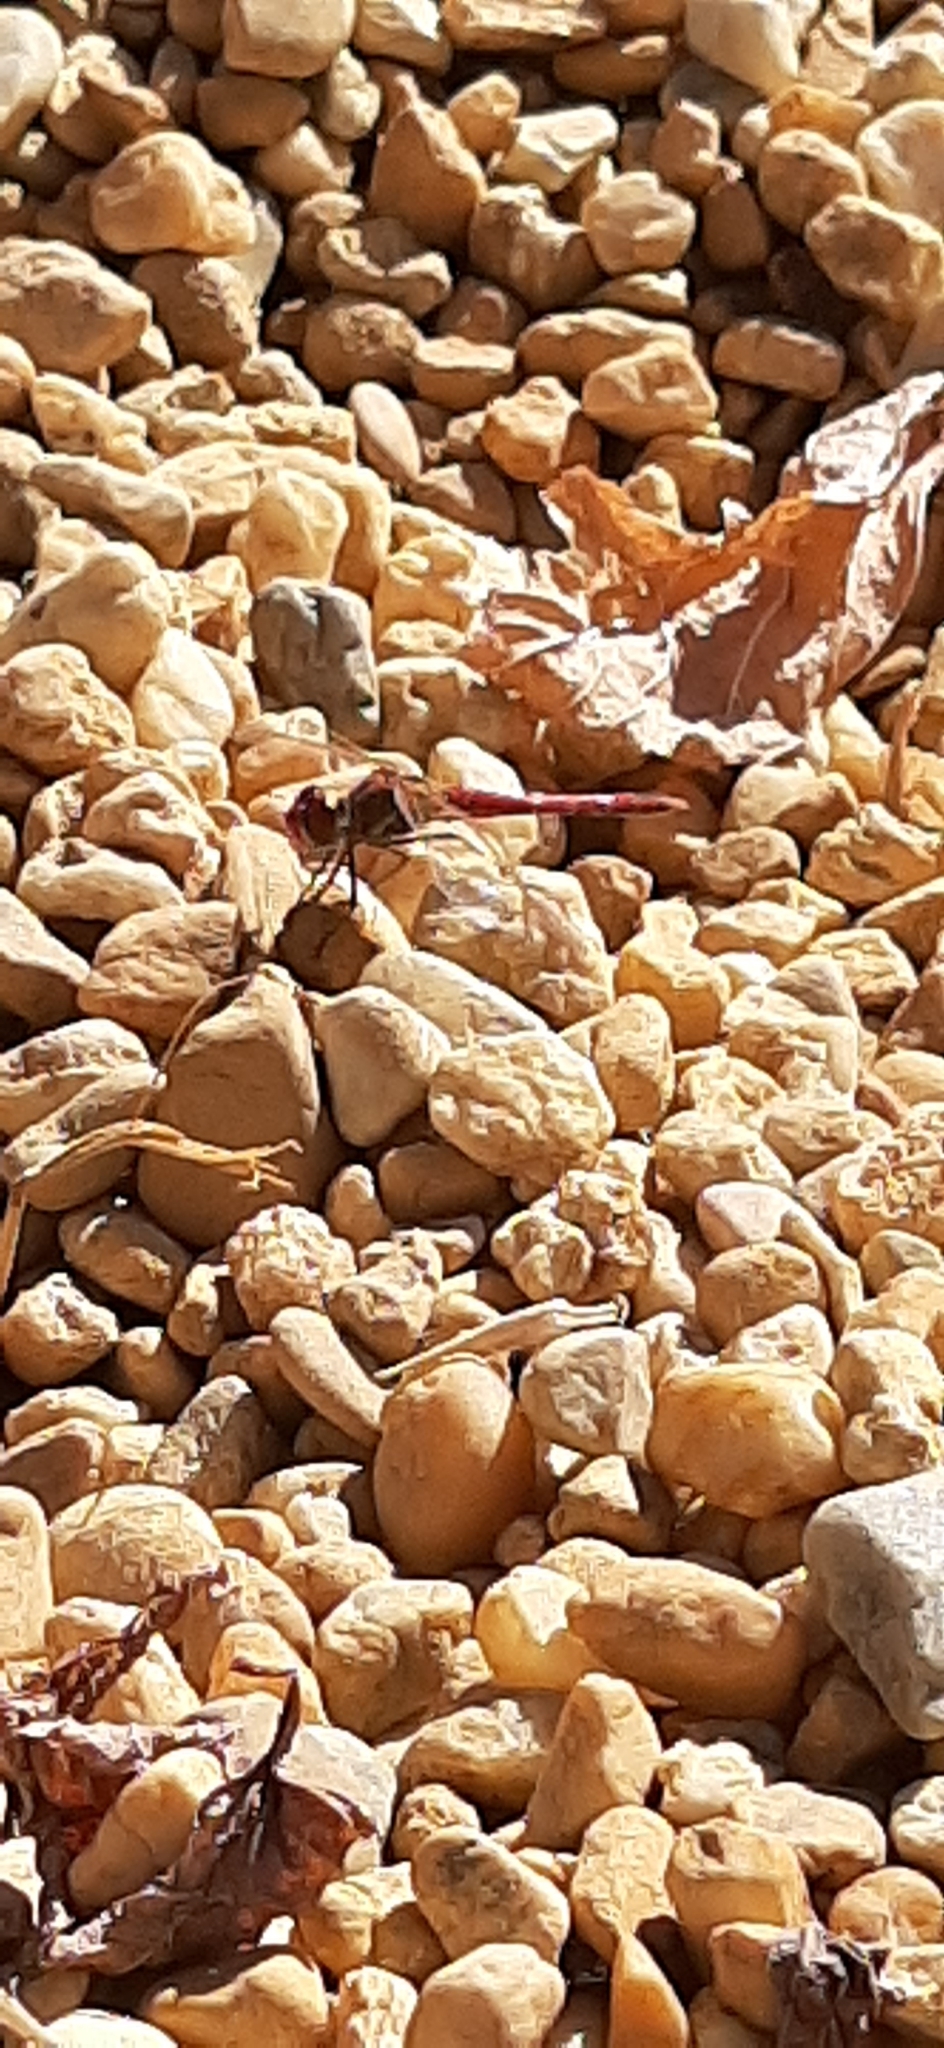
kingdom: Animalia
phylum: Arthropoda
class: Insecta
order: Odonata
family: Libellulidae
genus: Sympetrum
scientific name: Sympetrum fonscolombii
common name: Red-veined darter
